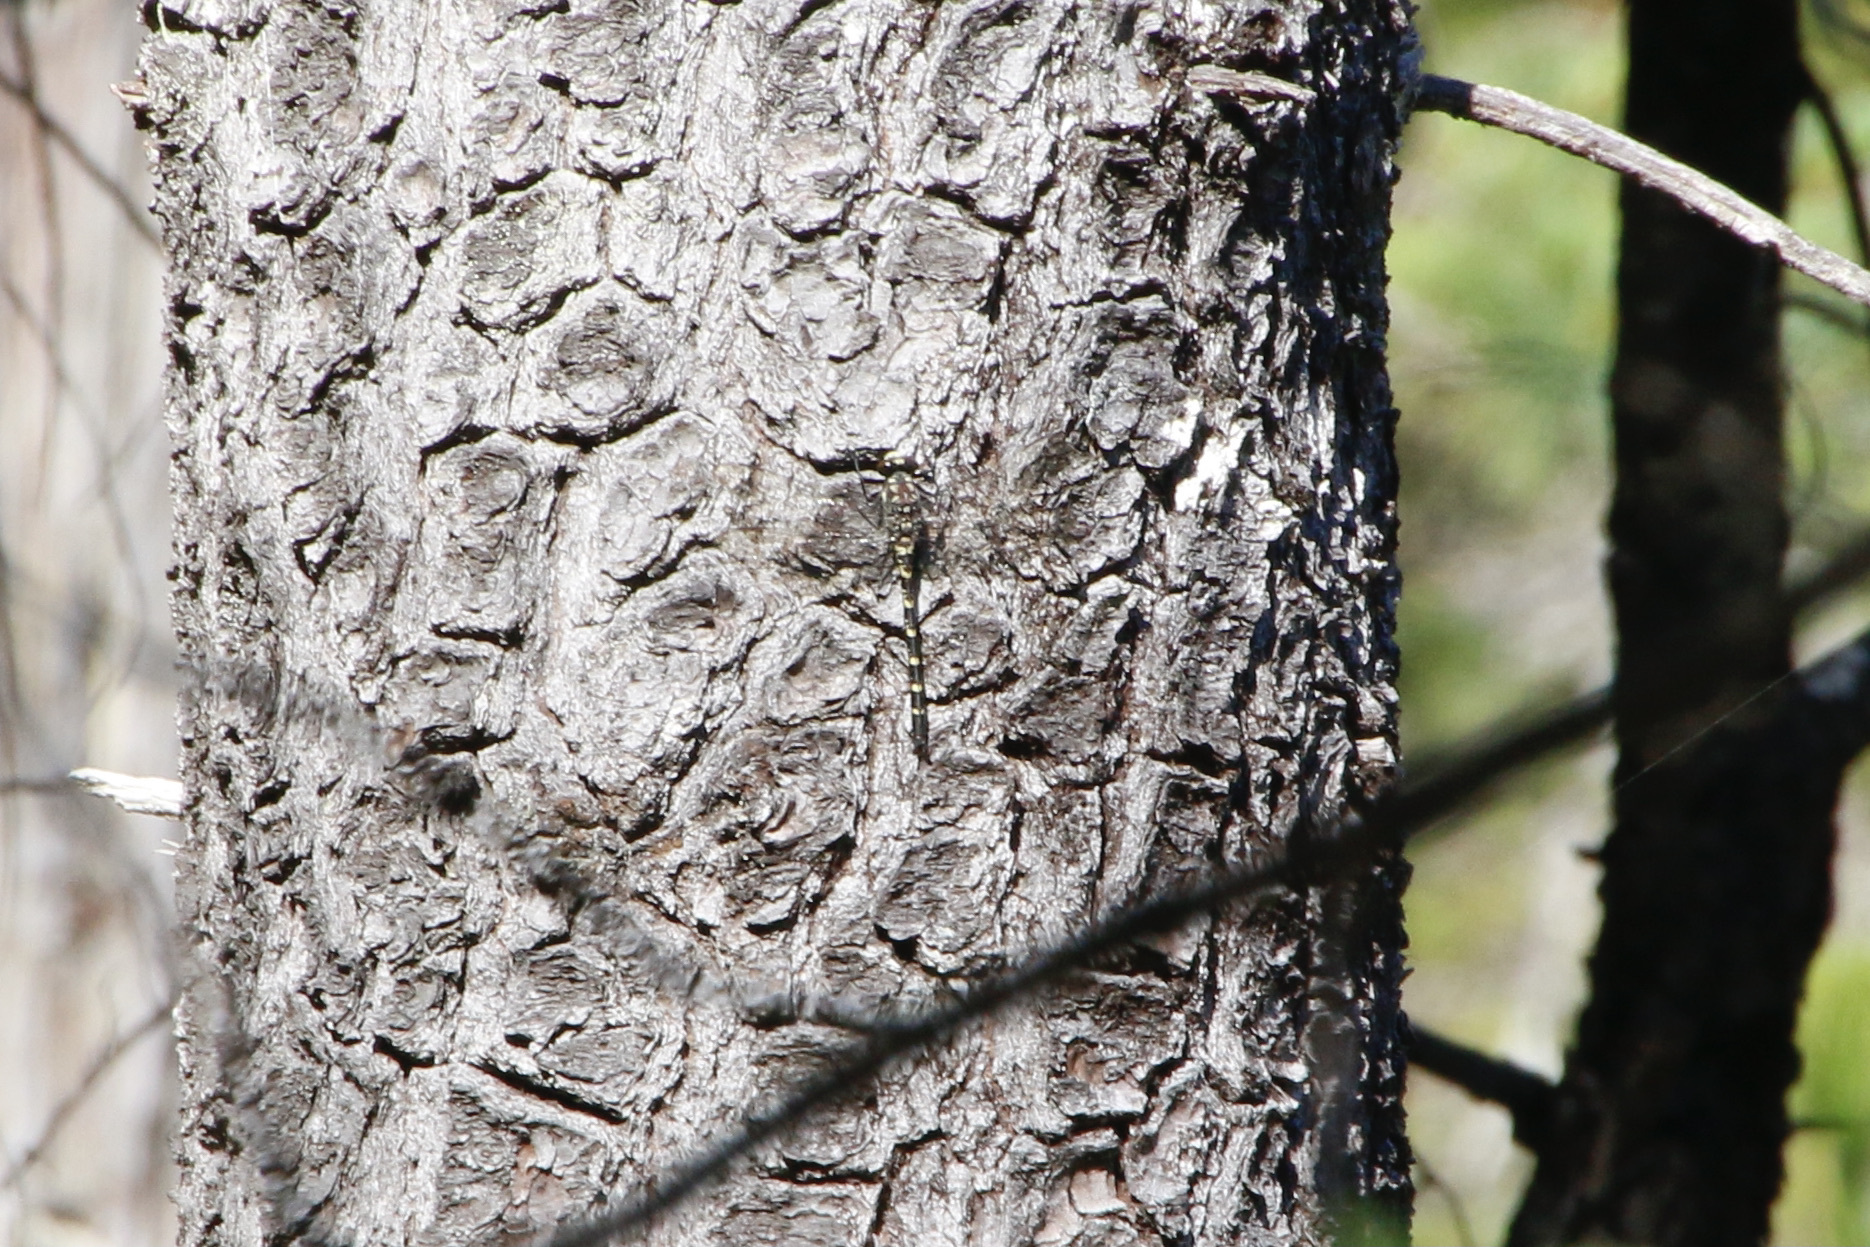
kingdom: Animalia
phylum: Arthropoda
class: Insecta
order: Odonata
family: Petaluridae
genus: Tanypteryx
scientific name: Tanypteryx hageni
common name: Black petaltail
